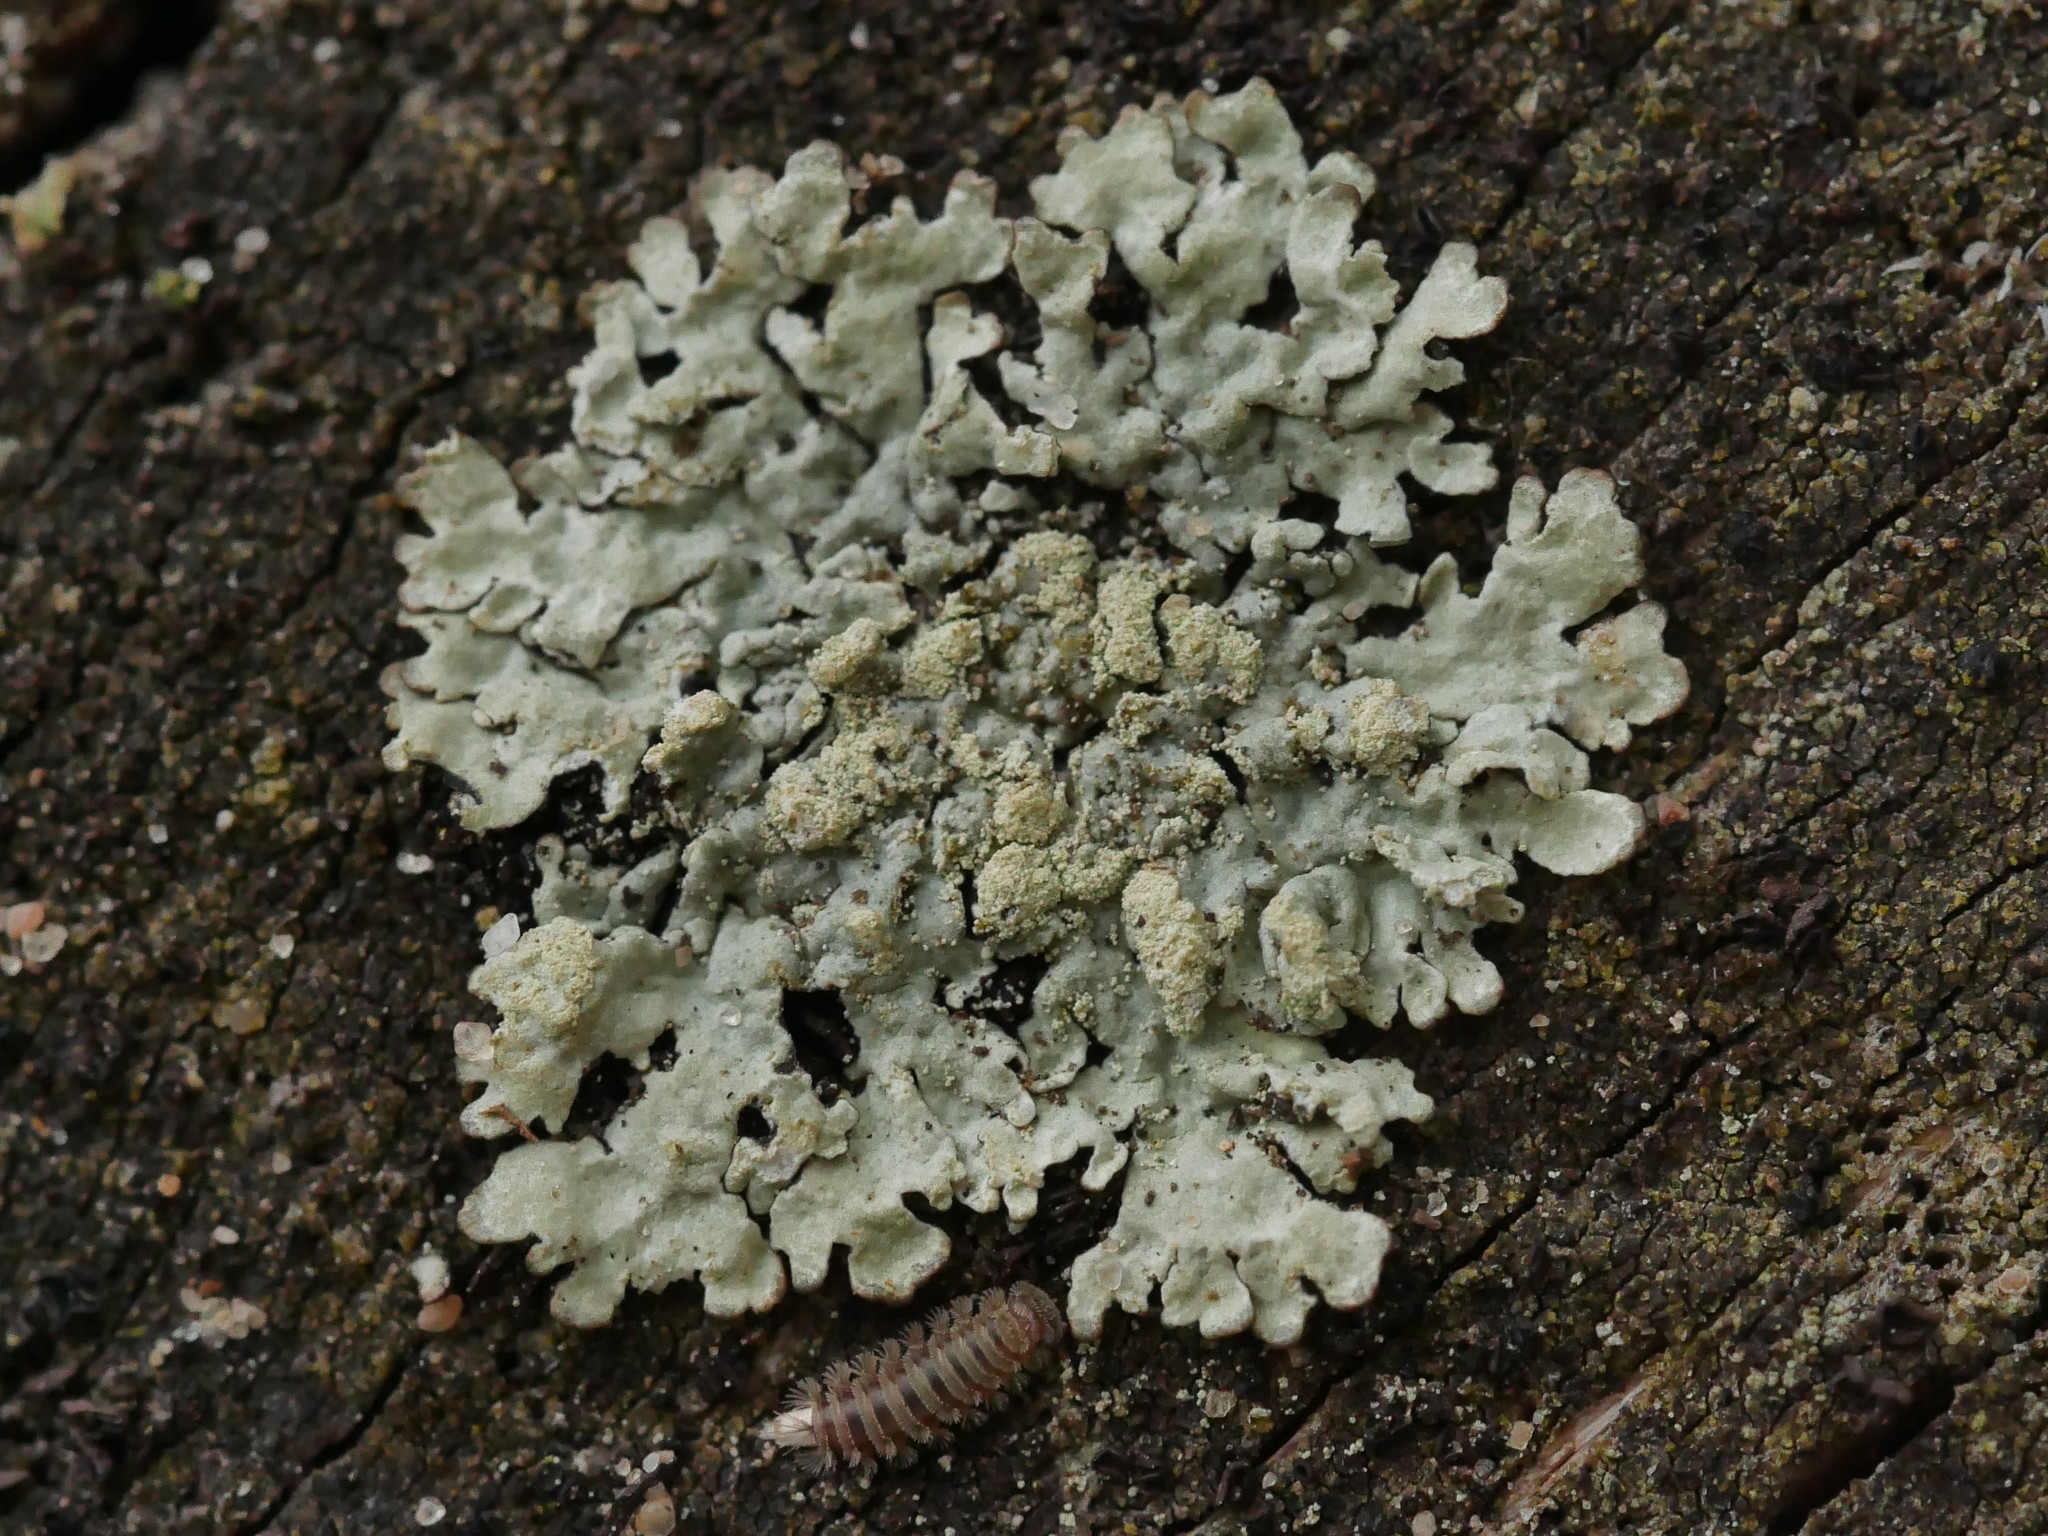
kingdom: Fungi
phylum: Ascomycota
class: Lecanoromycetes
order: Lecanorales
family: Parmeliaceae
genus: Parmeliopsis
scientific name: Parmeliopsis ambigua
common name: Green starburst lichen
